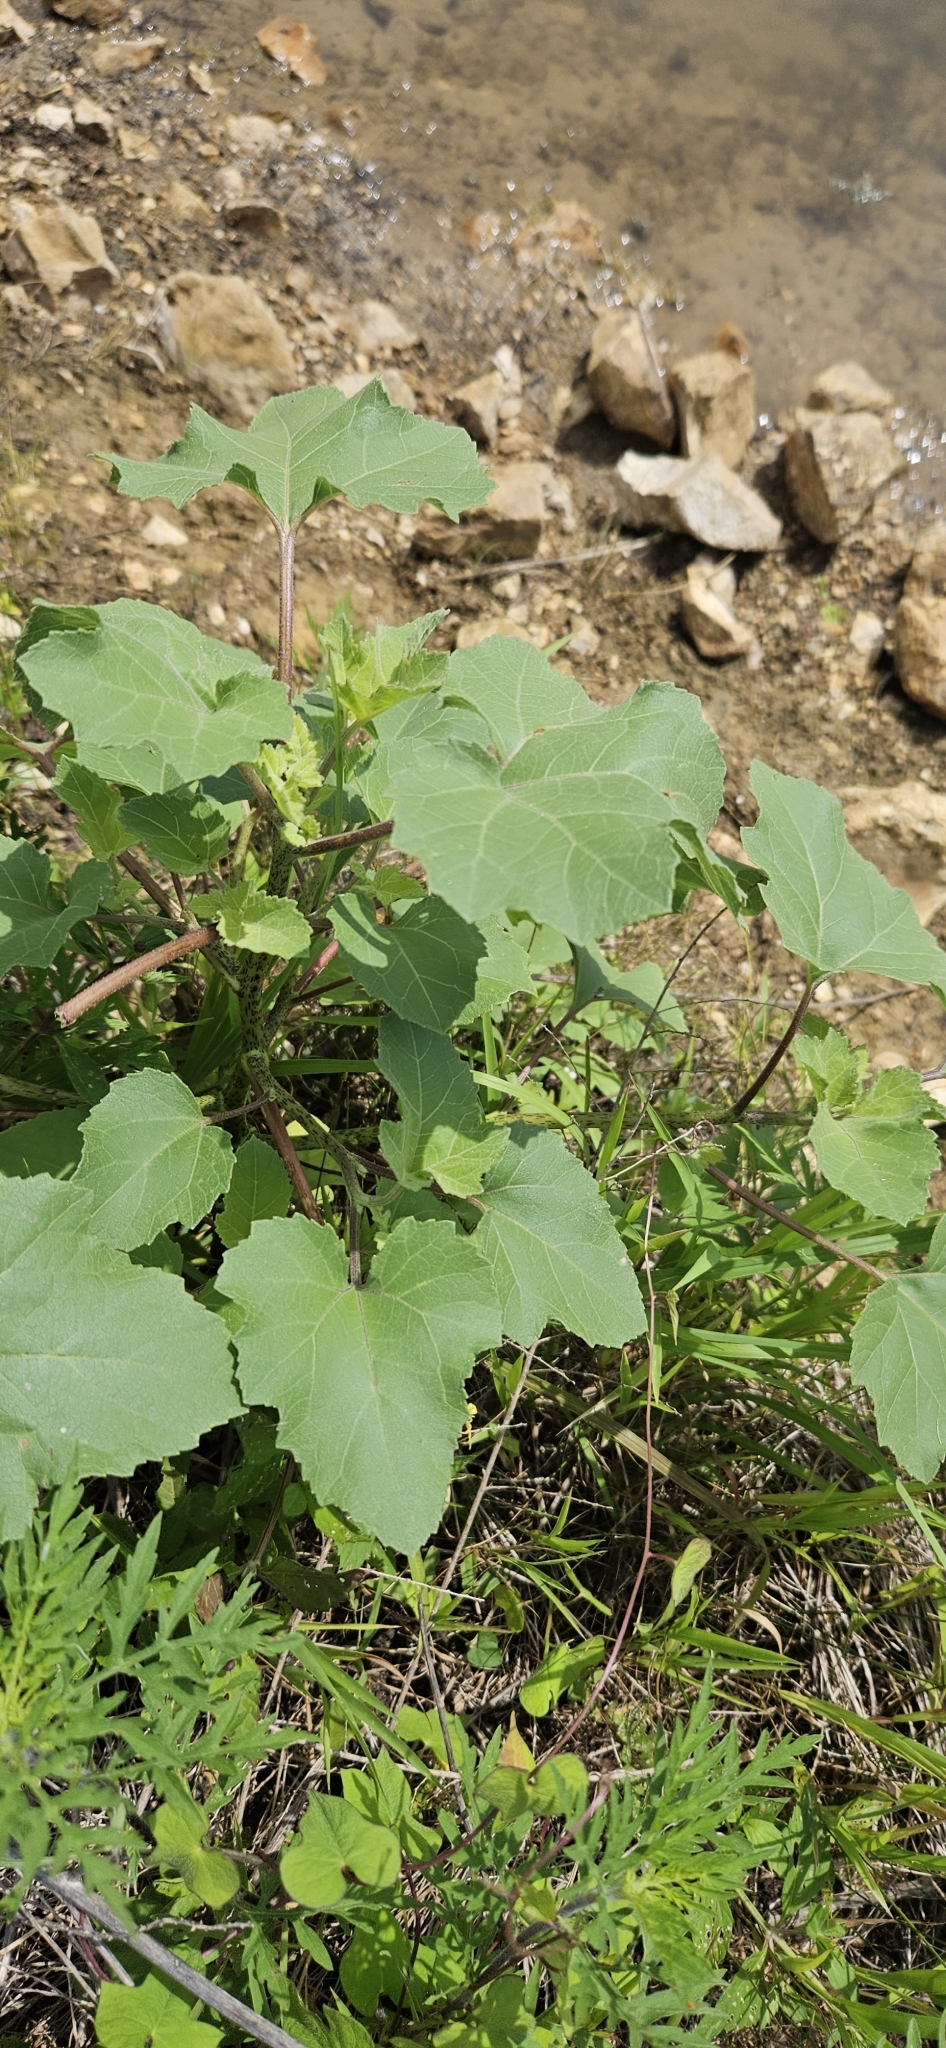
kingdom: Plantae
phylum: Tracheophyta
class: Magnoliopsida
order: Asterales
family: Asteraceae
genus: Xanthium
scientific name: Xanthium strumarium
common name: Rough cocklebur
